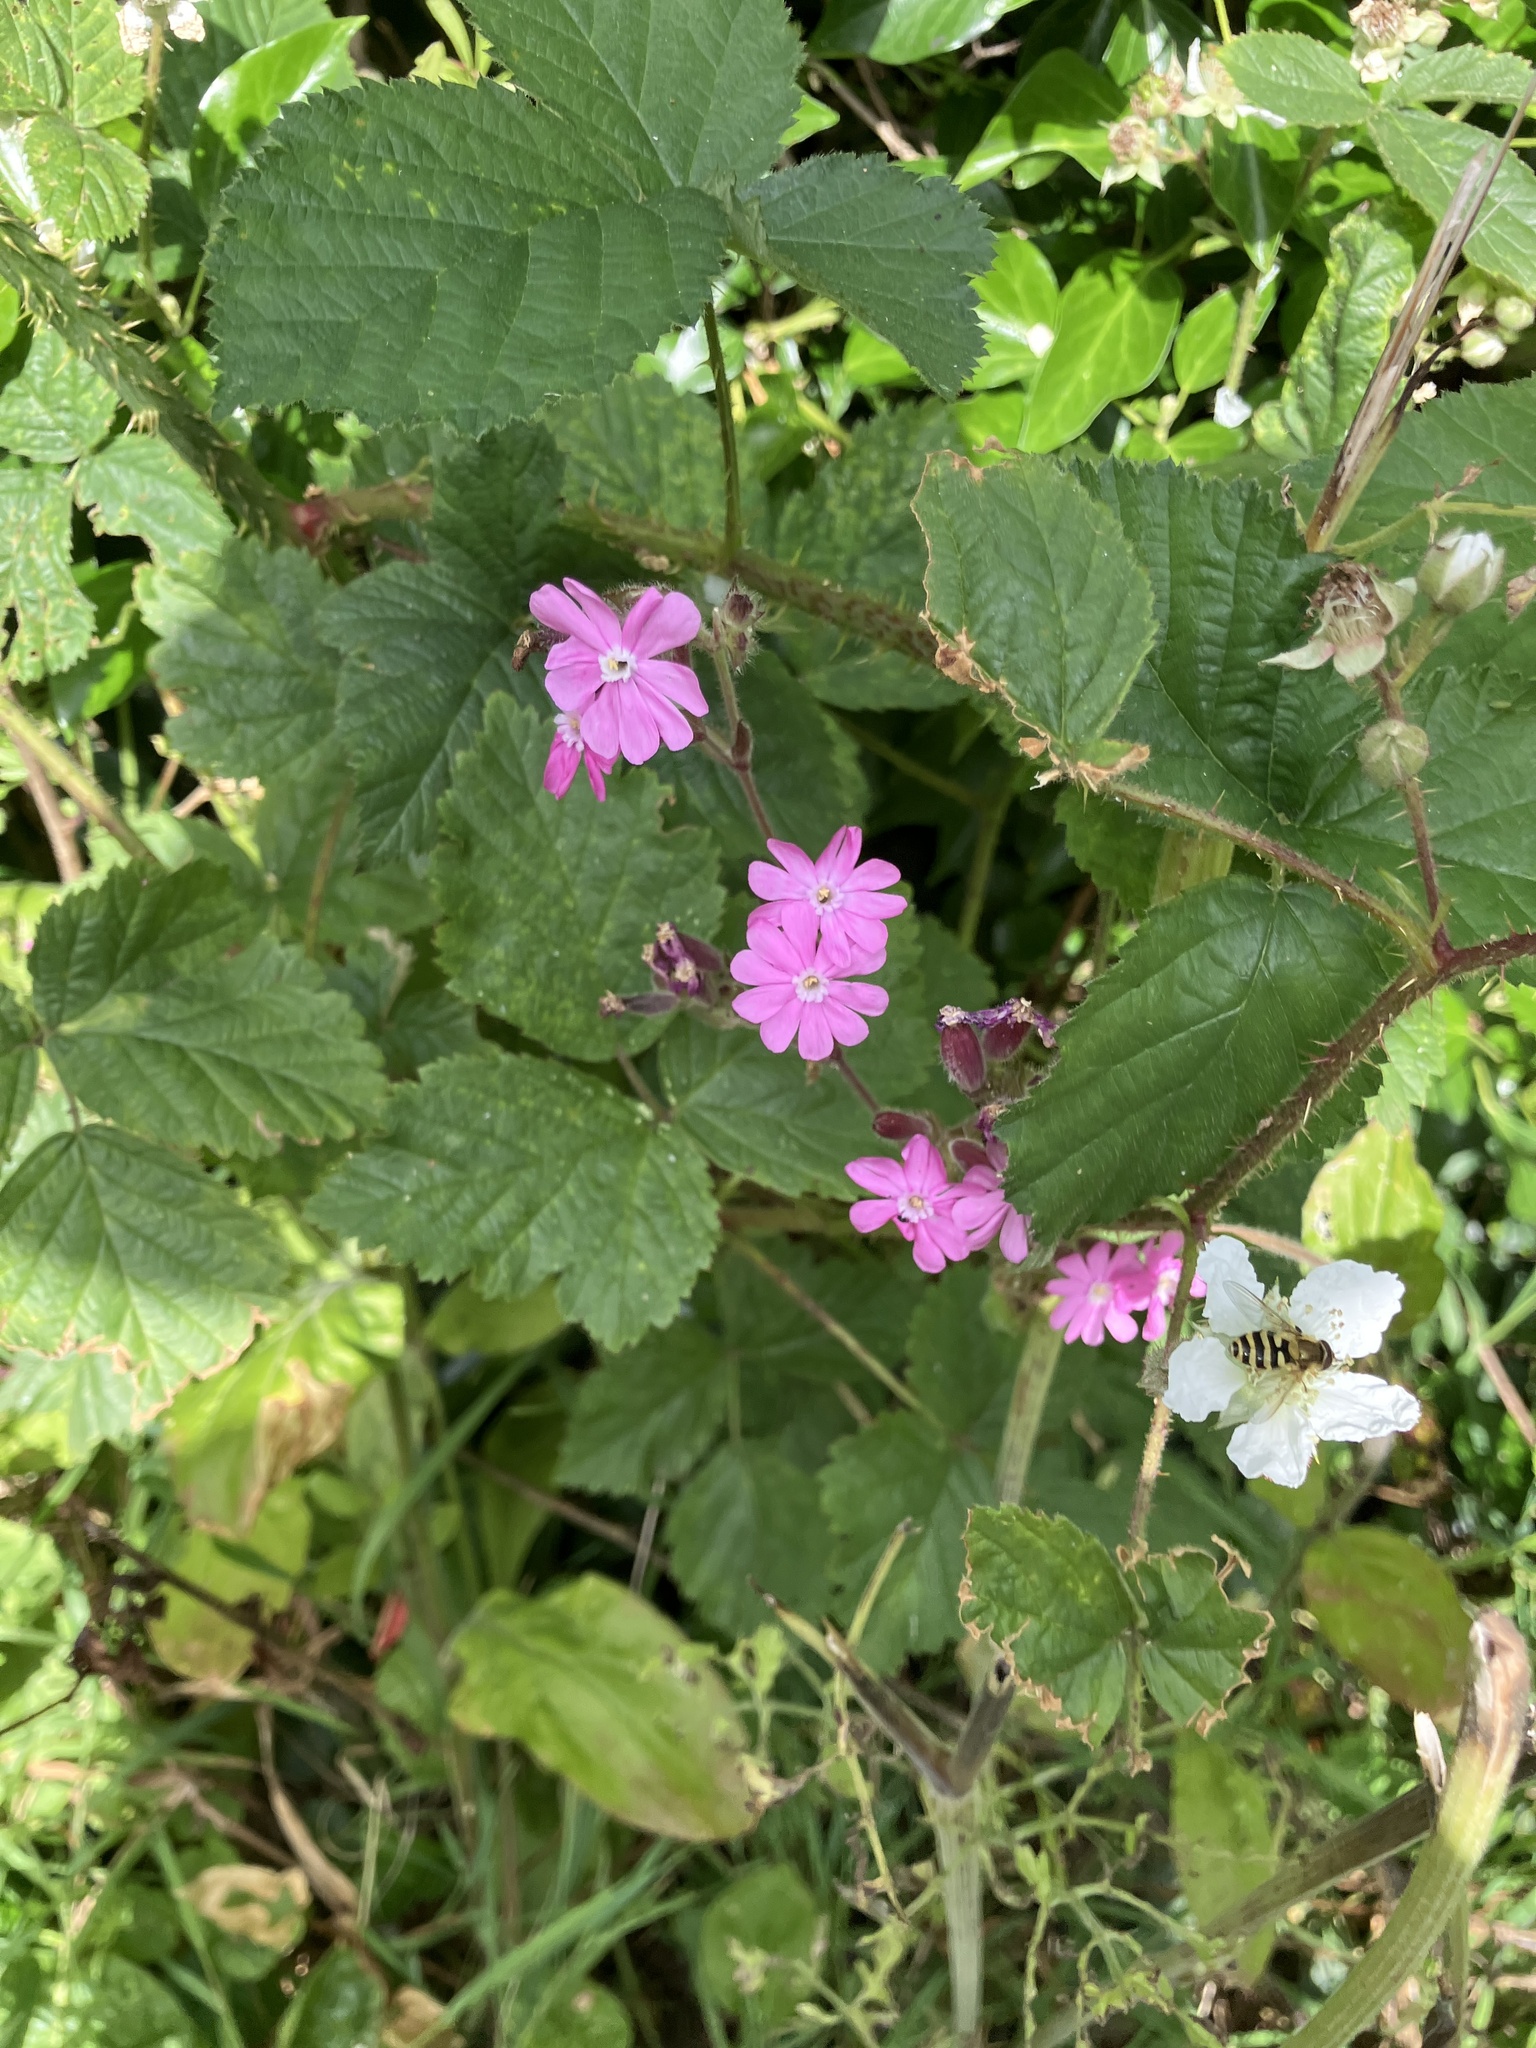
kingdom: Plantae
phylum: Tracheophyta
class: Magnoliopsida
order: Caryophyllales
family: Caryophyllaceae
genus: Silene
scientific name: Silene dioica
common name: Red campion
